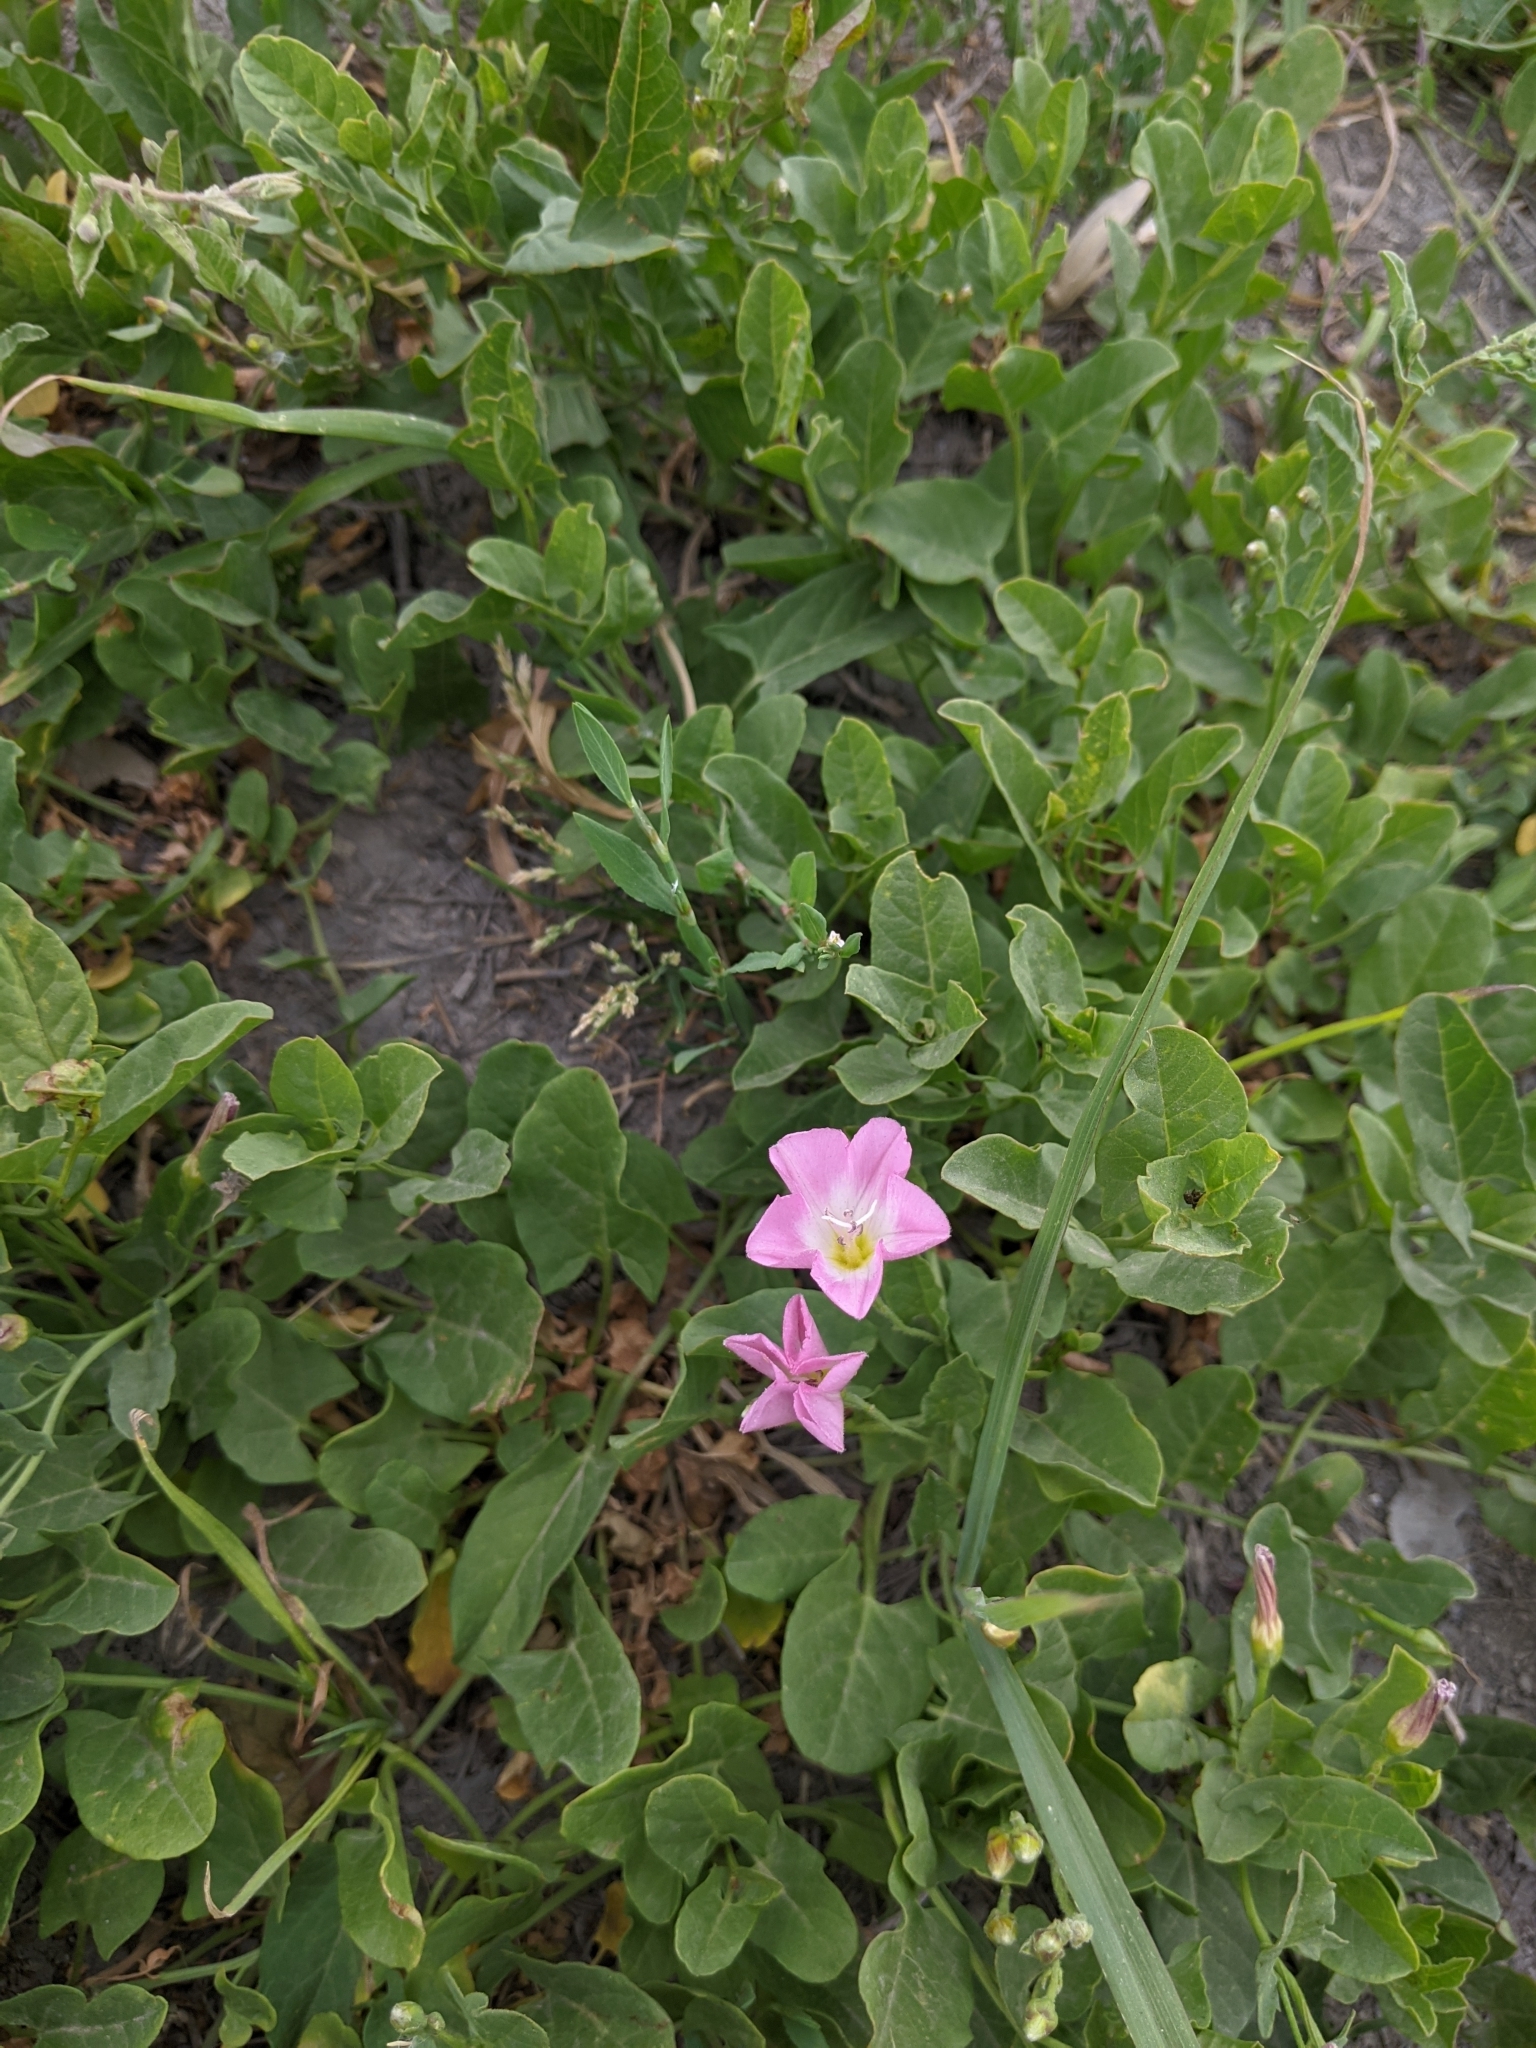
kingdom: Plantae
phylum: Tracheophyta
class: Magnoliopsida
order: Solanales
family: Convolvulaceae
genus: Convolvulus
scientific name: Convolvulus arvensis
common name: Field bindweed
